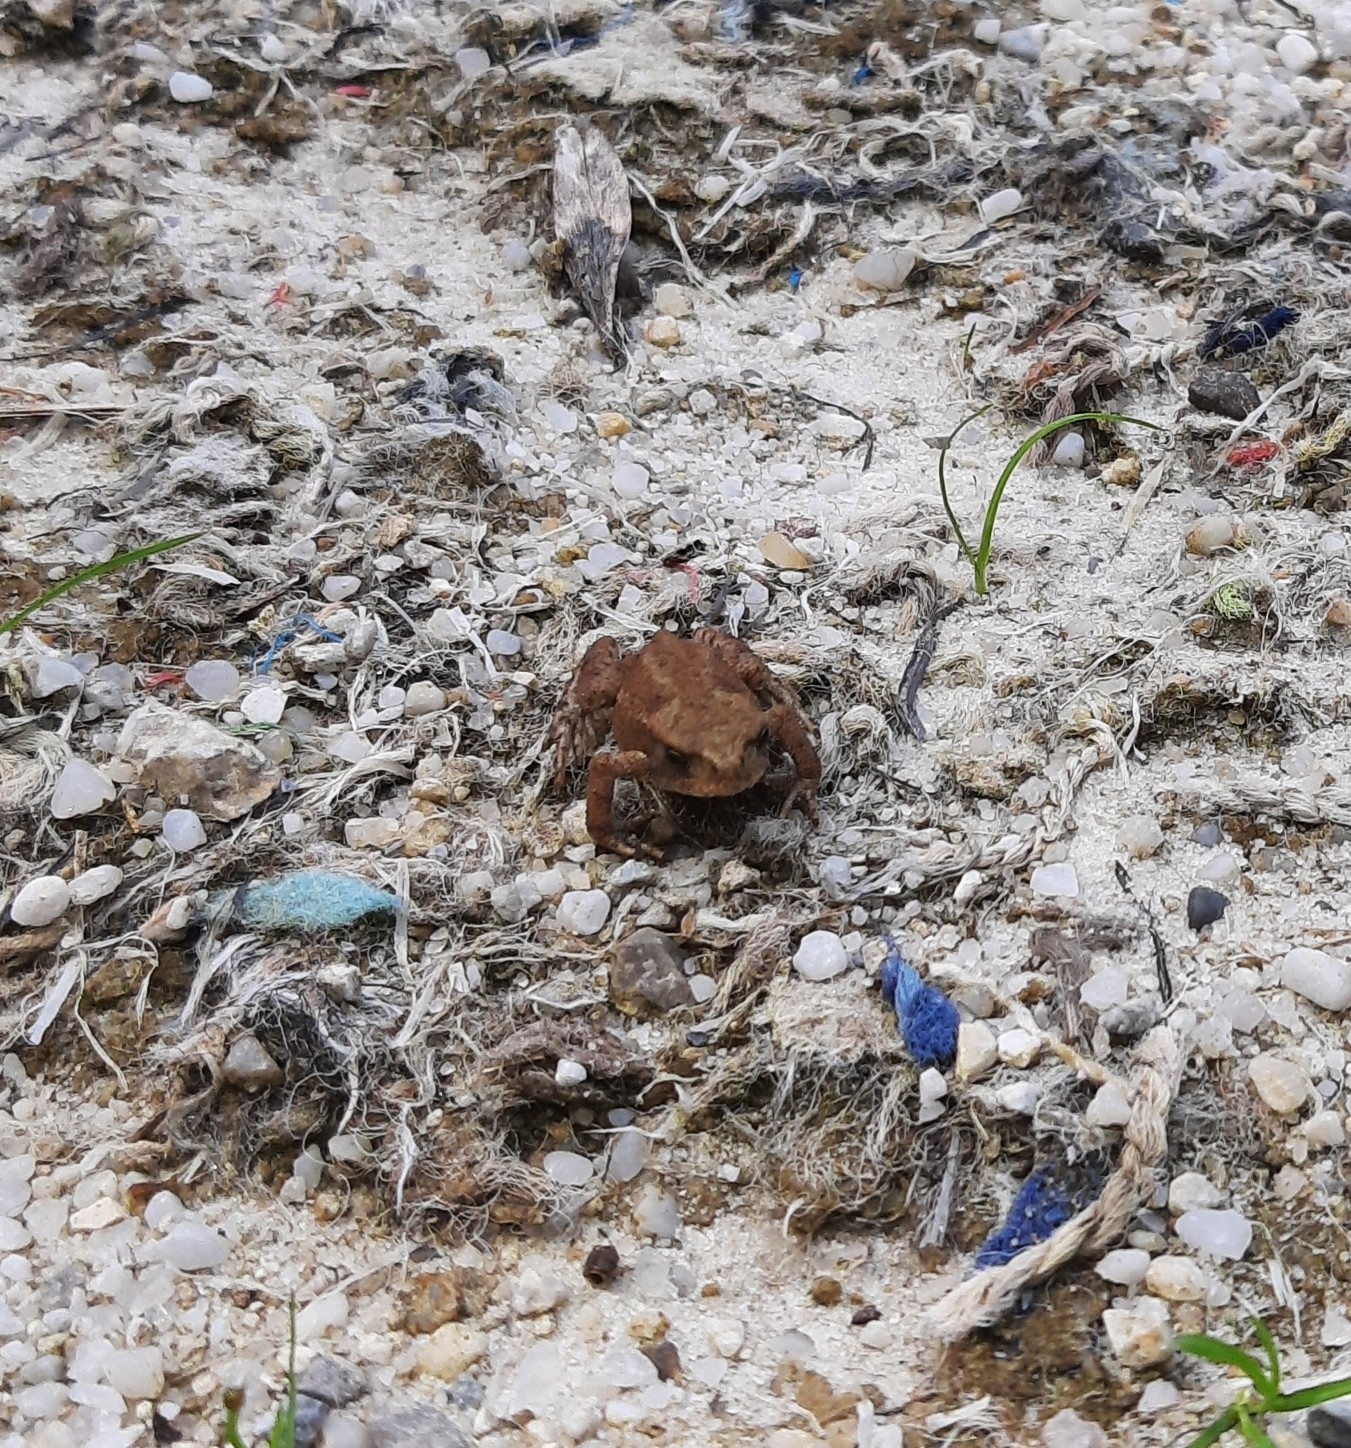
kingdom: Animalia
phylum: Chordata
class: Amphibia
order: Anura
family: Bufonidae
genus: Bufo
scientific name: Bufo bufo
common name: Common toad
